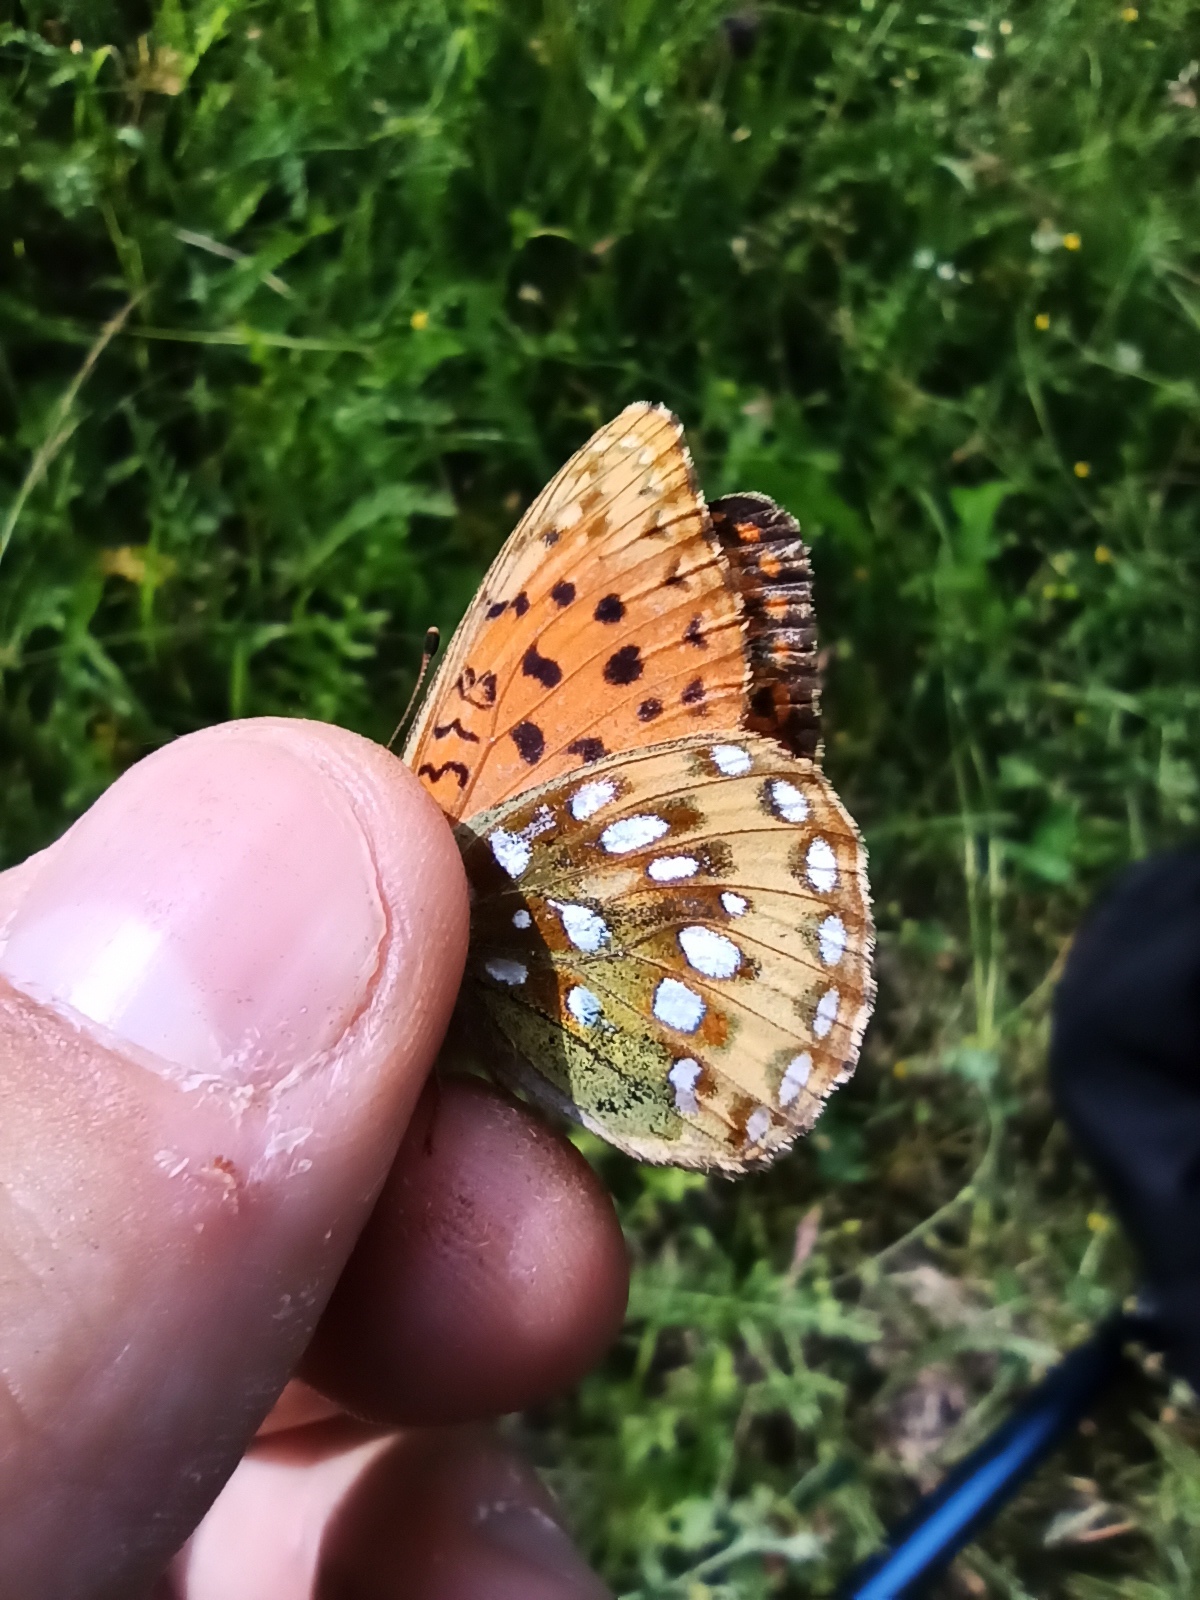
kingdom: Animalia
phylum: Arthropoda
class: Insecta
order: Lepidoptera
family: Nymphalidae
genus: Speyeria
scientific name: Speyeria aglaja
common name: Dark green fritillary
